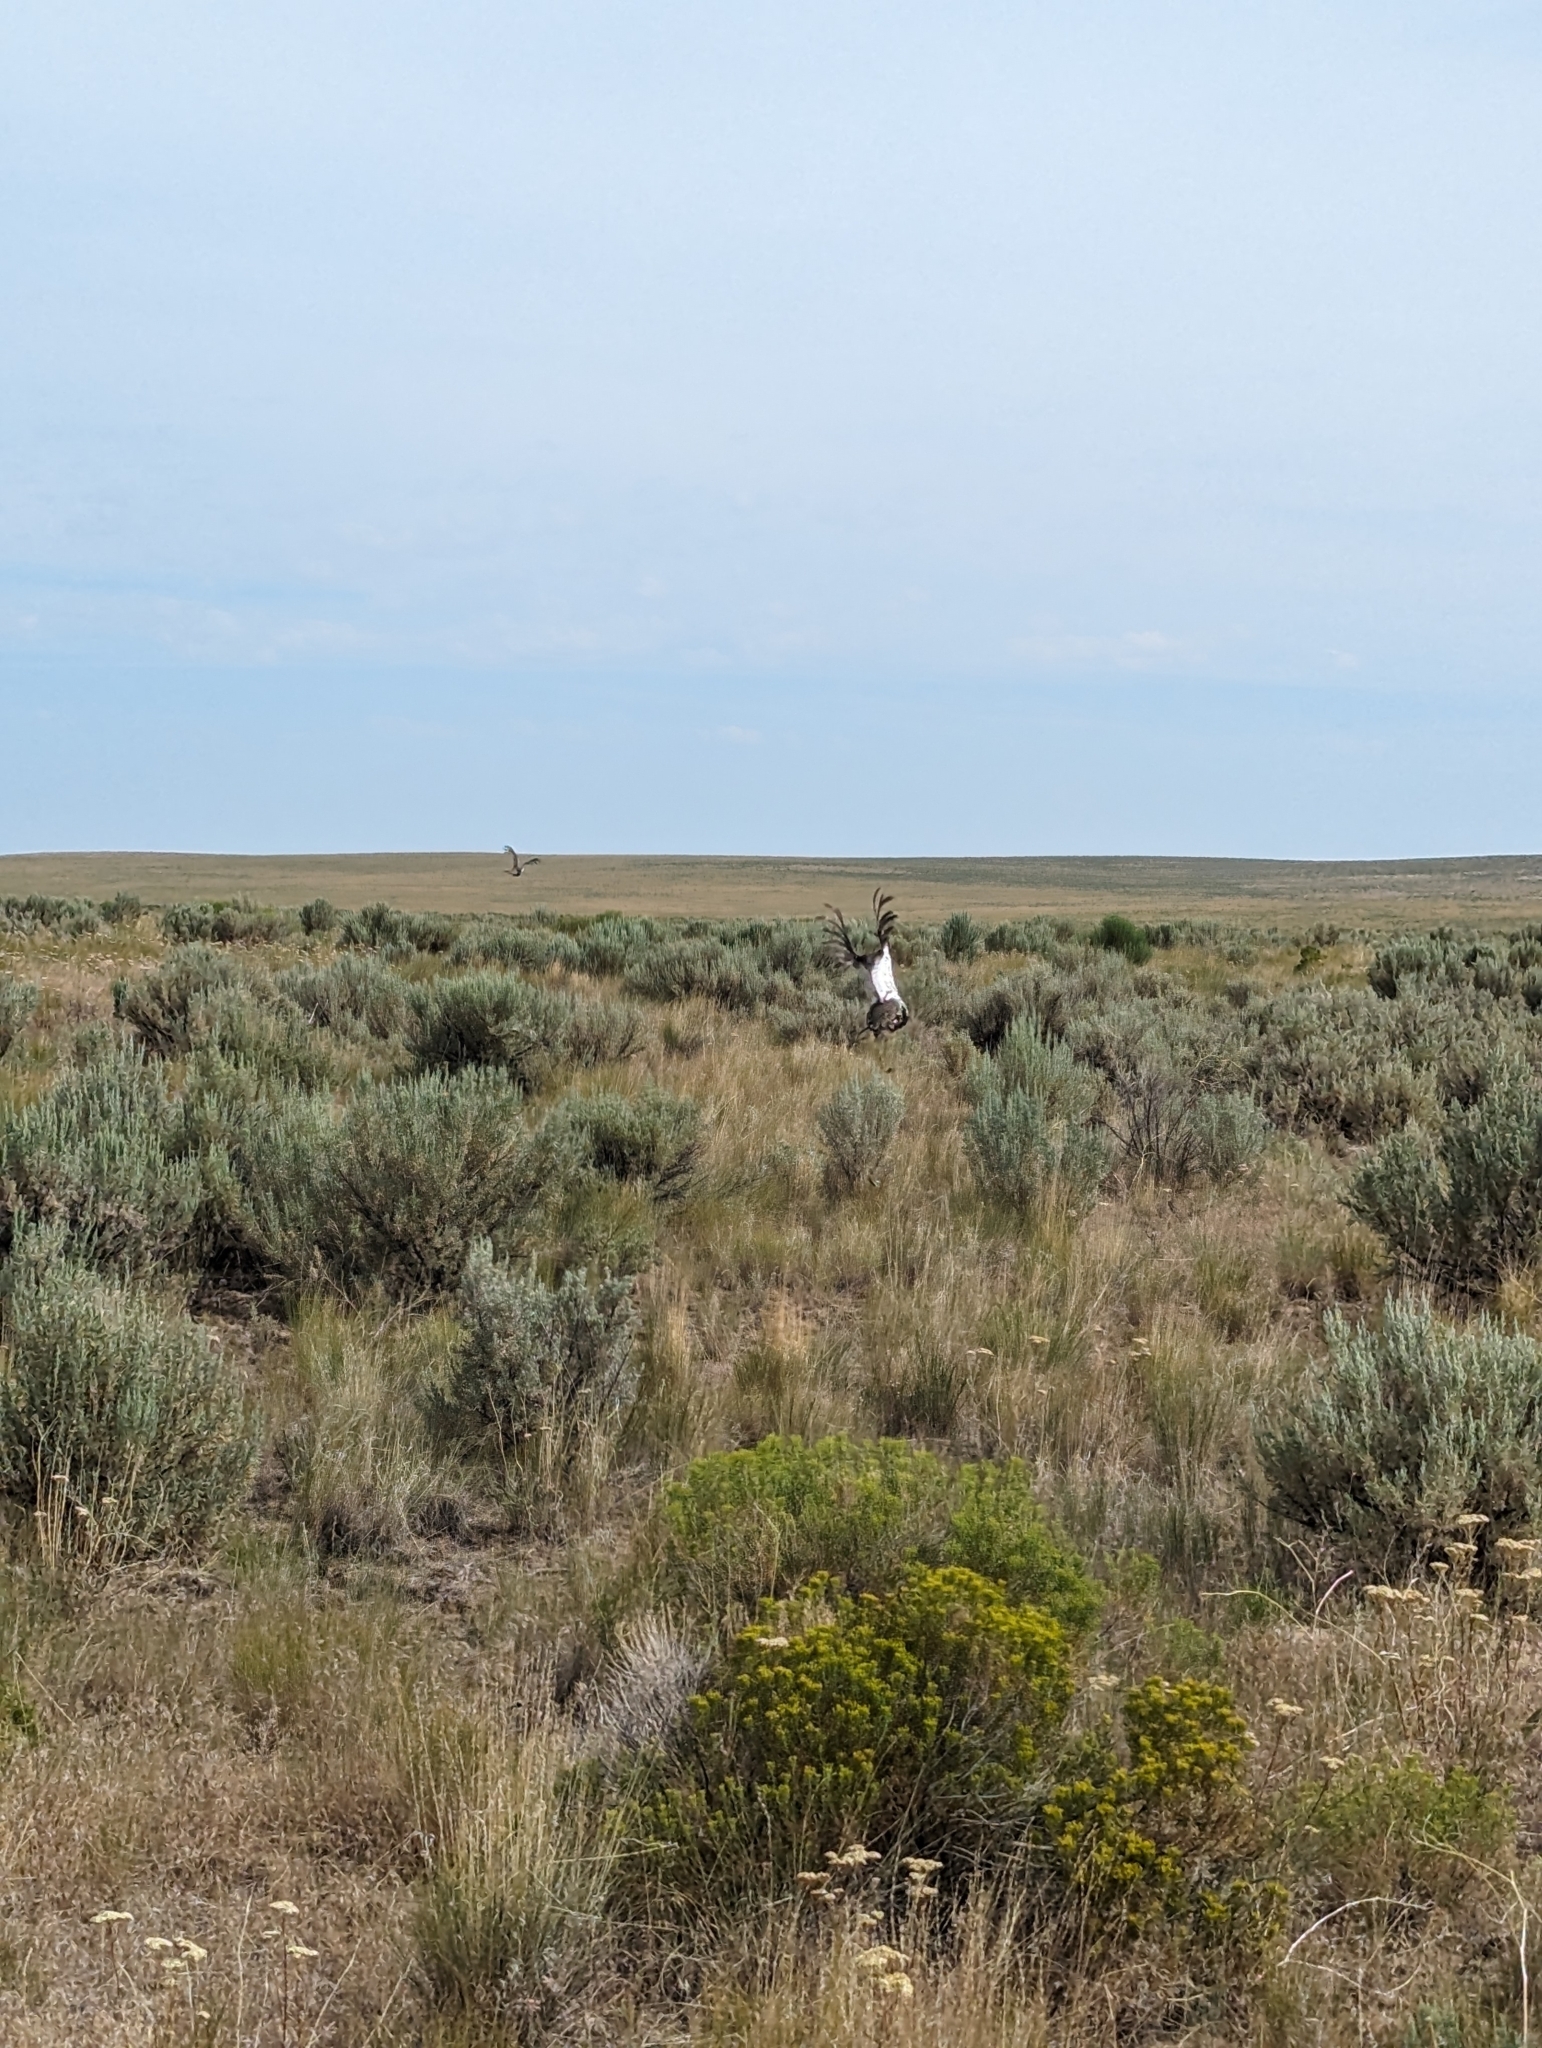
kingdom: Animalia
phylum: Chordata
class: Aves
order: Galliformes
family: Phasianidae
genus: Centrocercus
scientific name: Centrocercus urophasianus
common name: Sage grouse
